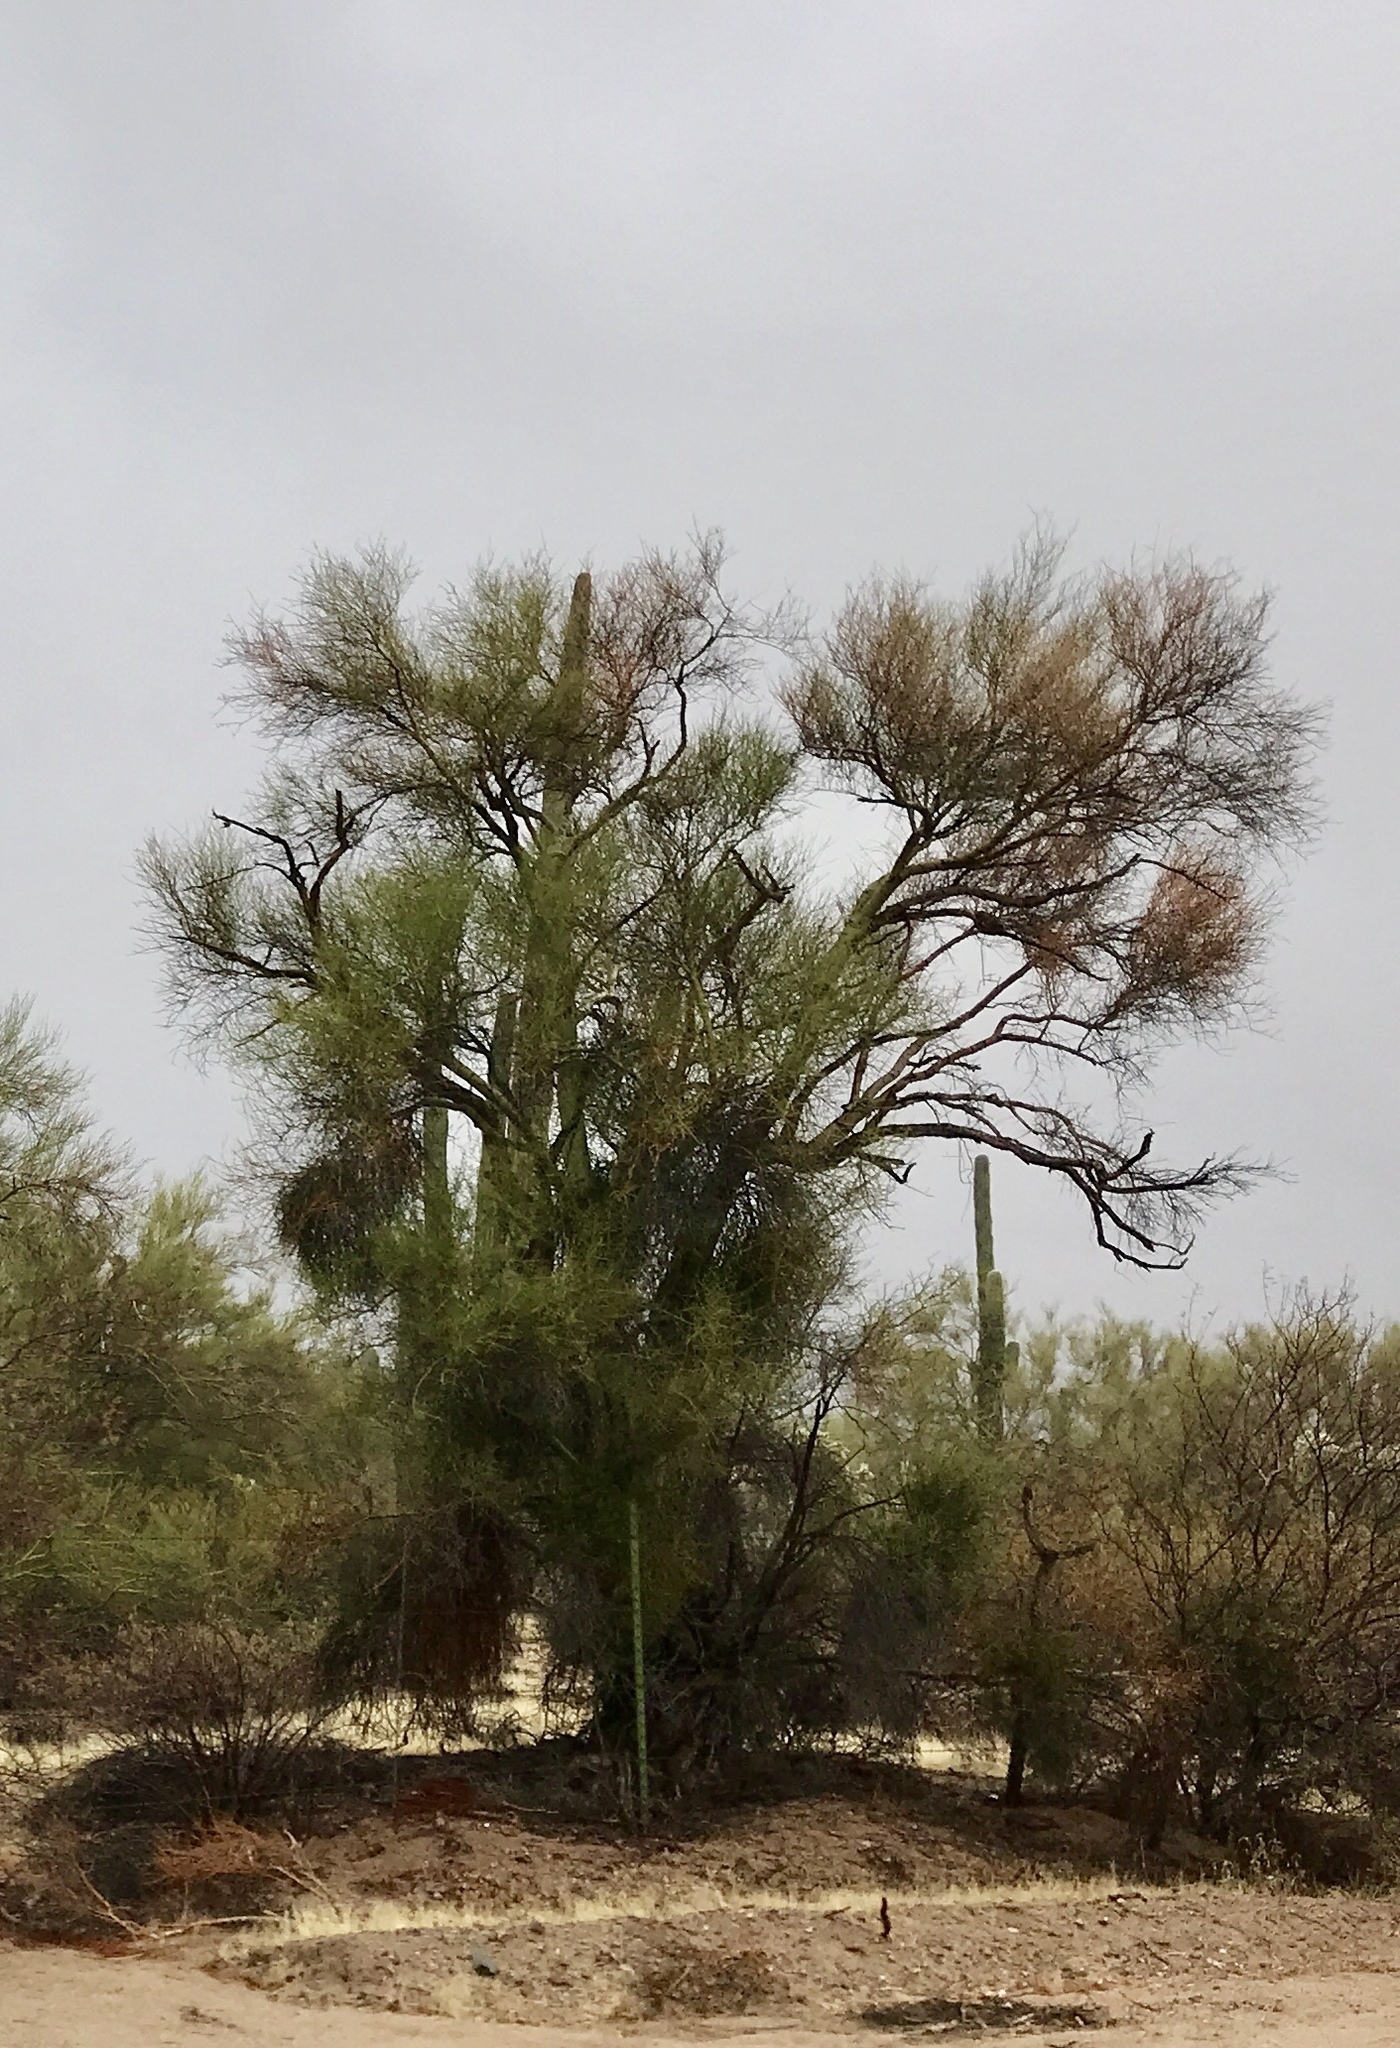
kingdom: Plantae
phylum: Tracheophyta
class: Magnoliopsida
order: Fabales
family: Fabaceae
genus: Parkinsonia
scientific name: Parkinsonia microphylla
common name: Yellow paloverde
